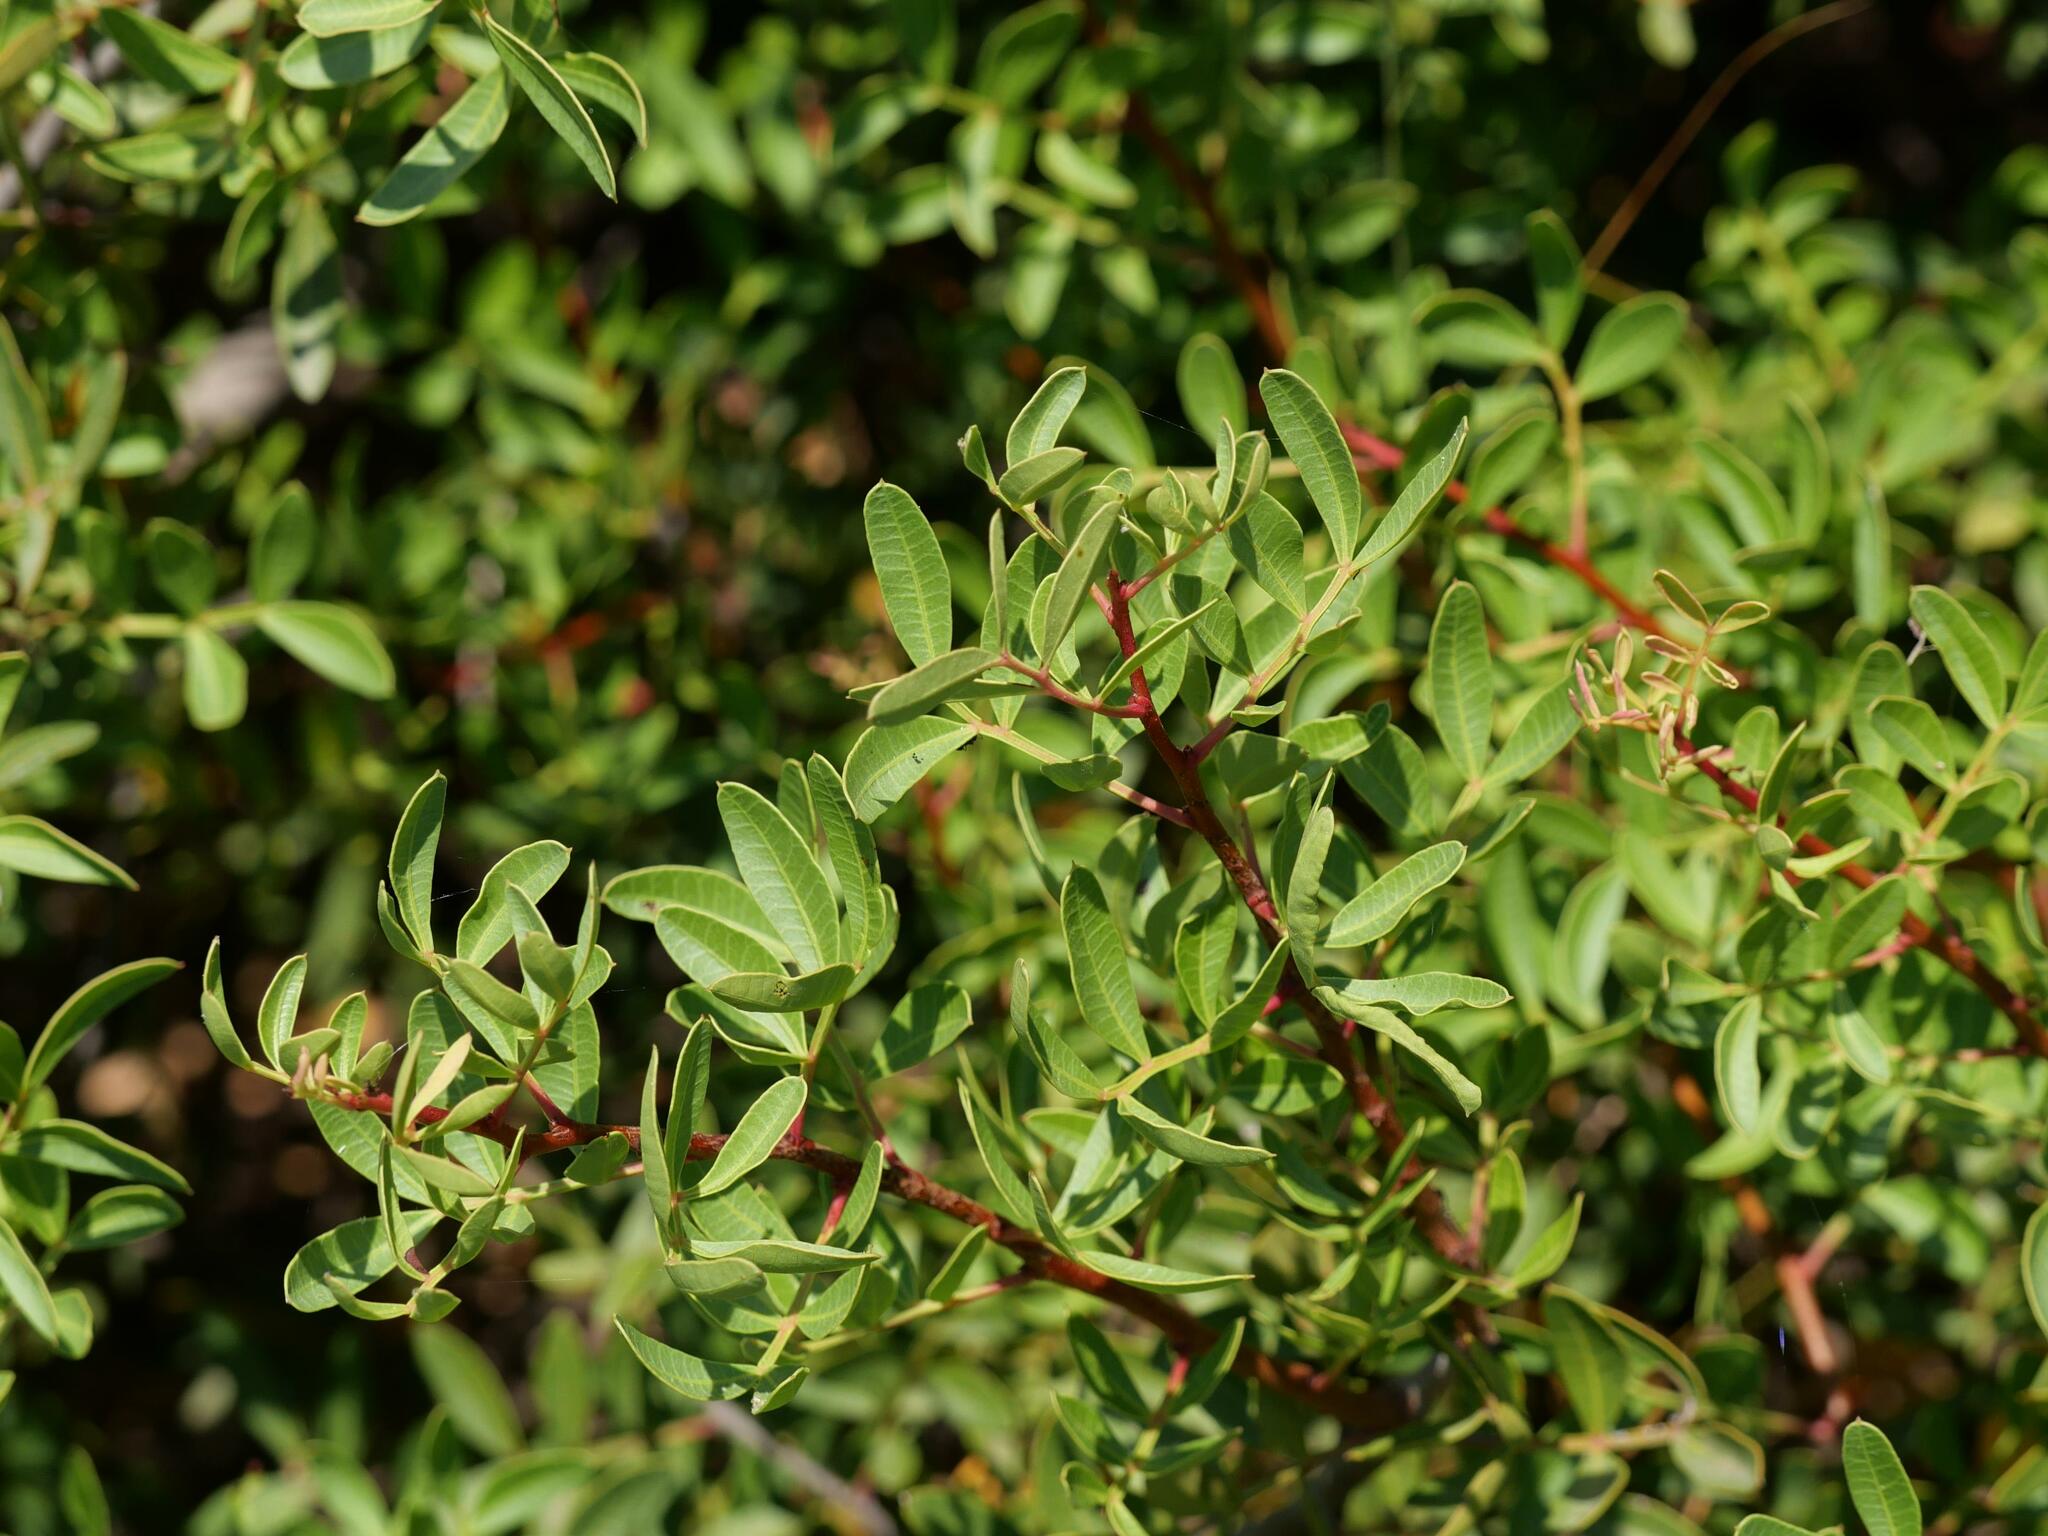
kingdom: Plantae
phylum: Tracheophyta
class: Magnoliopsida
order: Sapindales
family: Anacardiaceae
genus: Pistacia
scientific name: Pistacia lentiscus
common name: Lentisk
